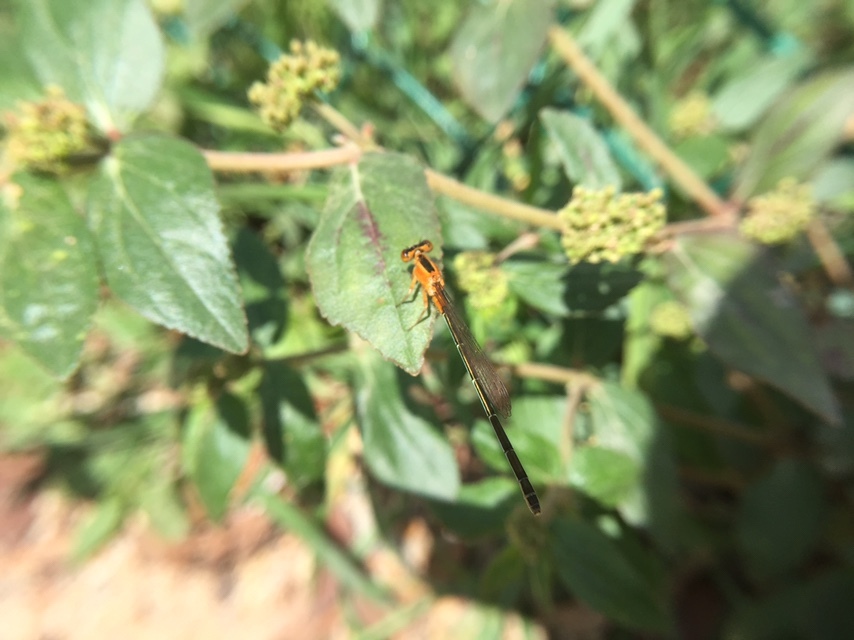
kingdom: Animalia
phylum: Arthropoda
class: Insecta
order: Odonata
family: Coenagrionidae
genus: Ischnura
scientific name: Ischnura senegalensis
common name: Tropical bluetail
